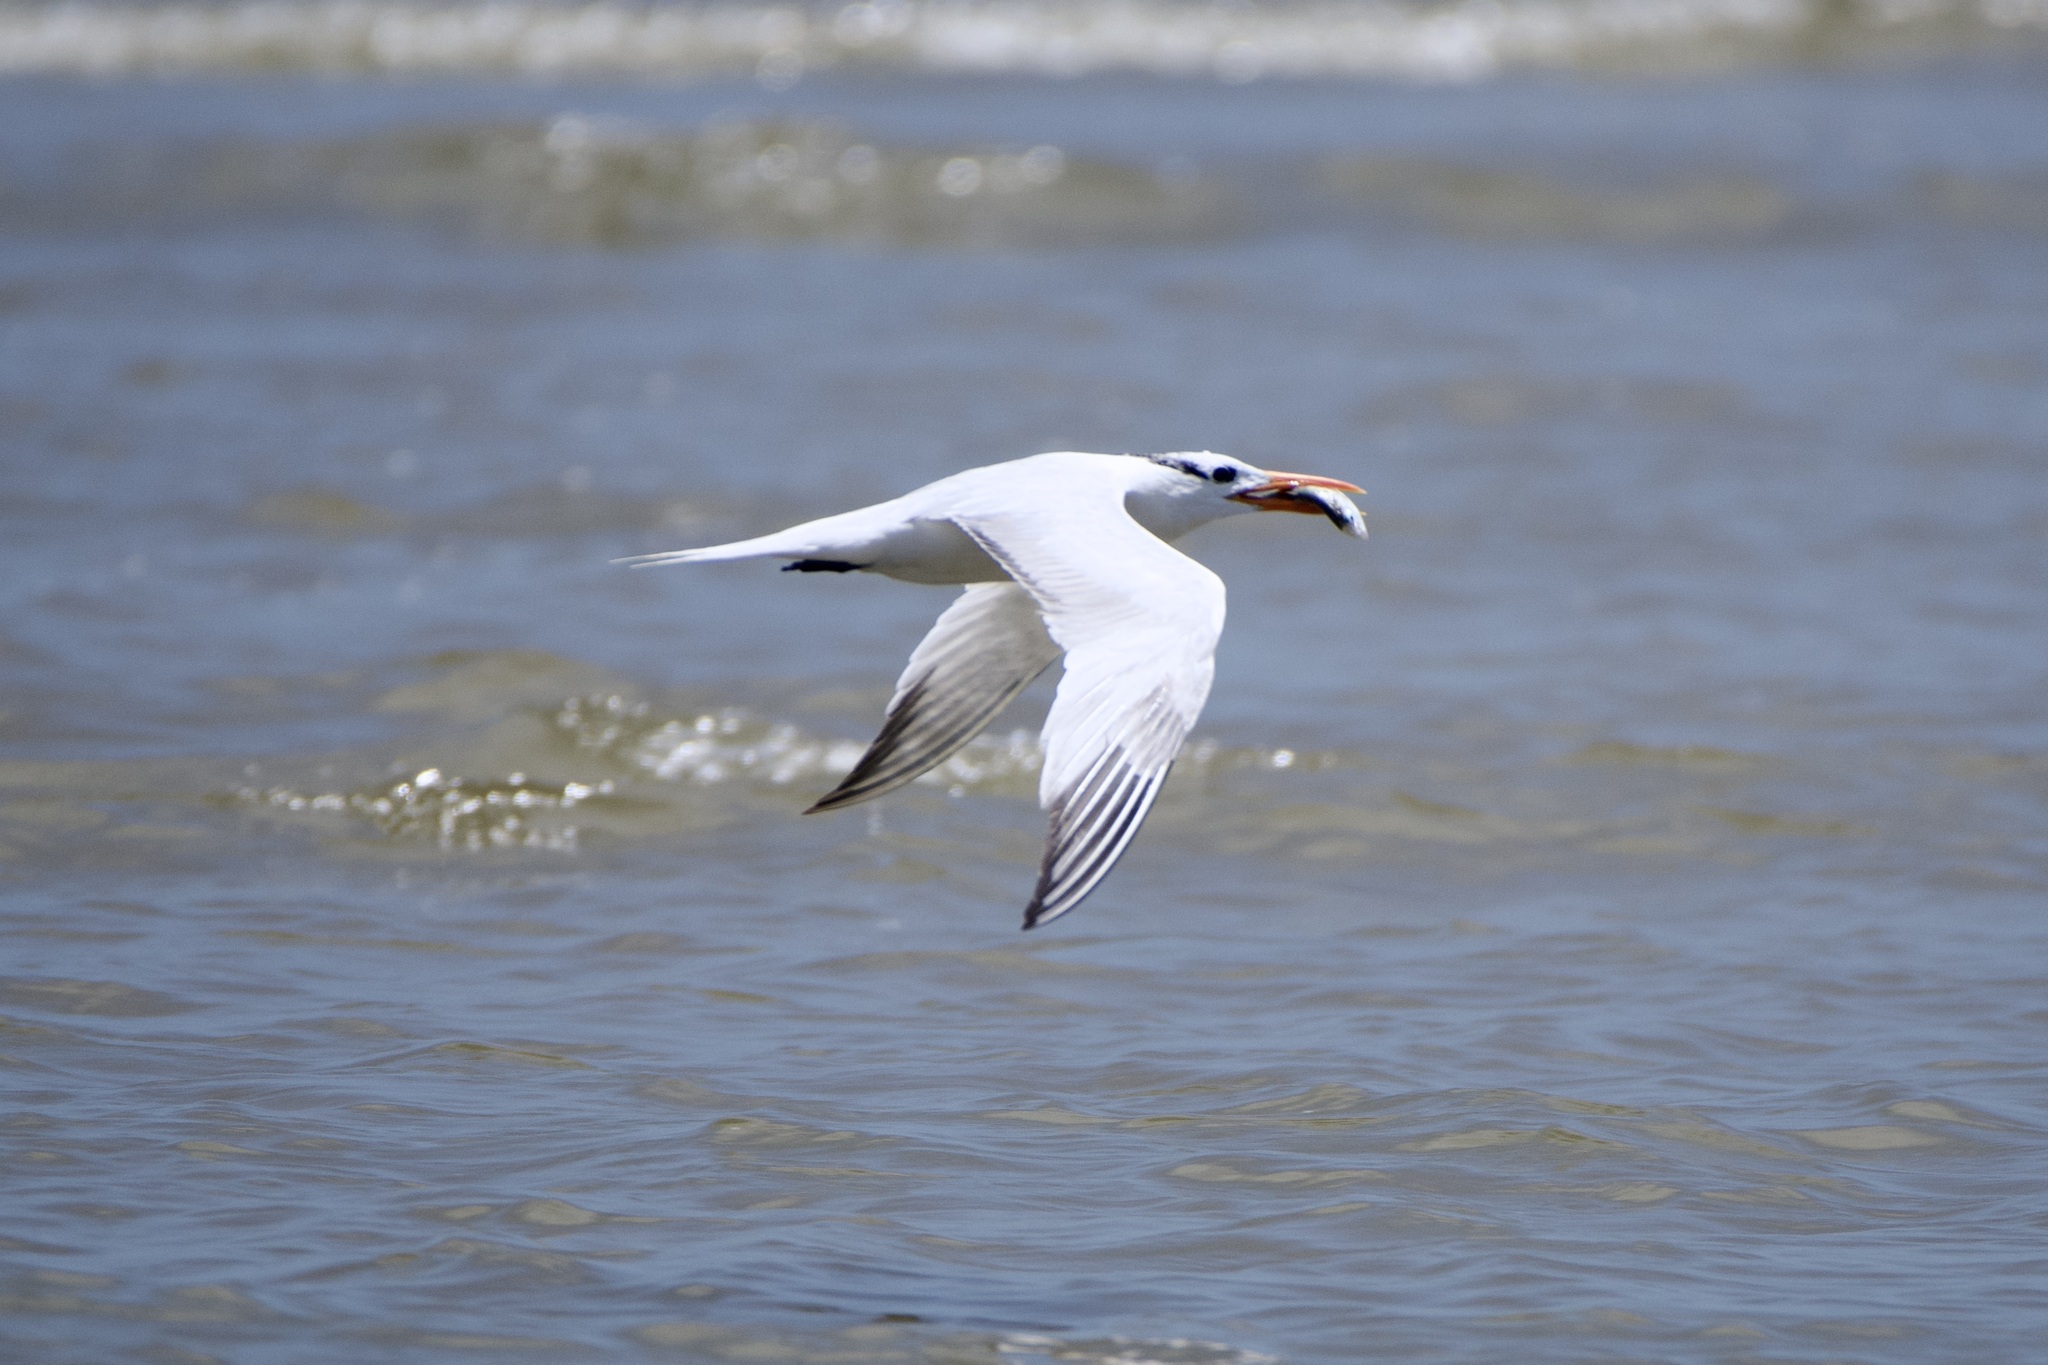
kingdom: Animalia
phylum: Chordata
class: Aves
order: Charadriiformes
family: Laridae
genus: Thalasseus
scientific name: Thalasseus maximus
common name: Royal tern
